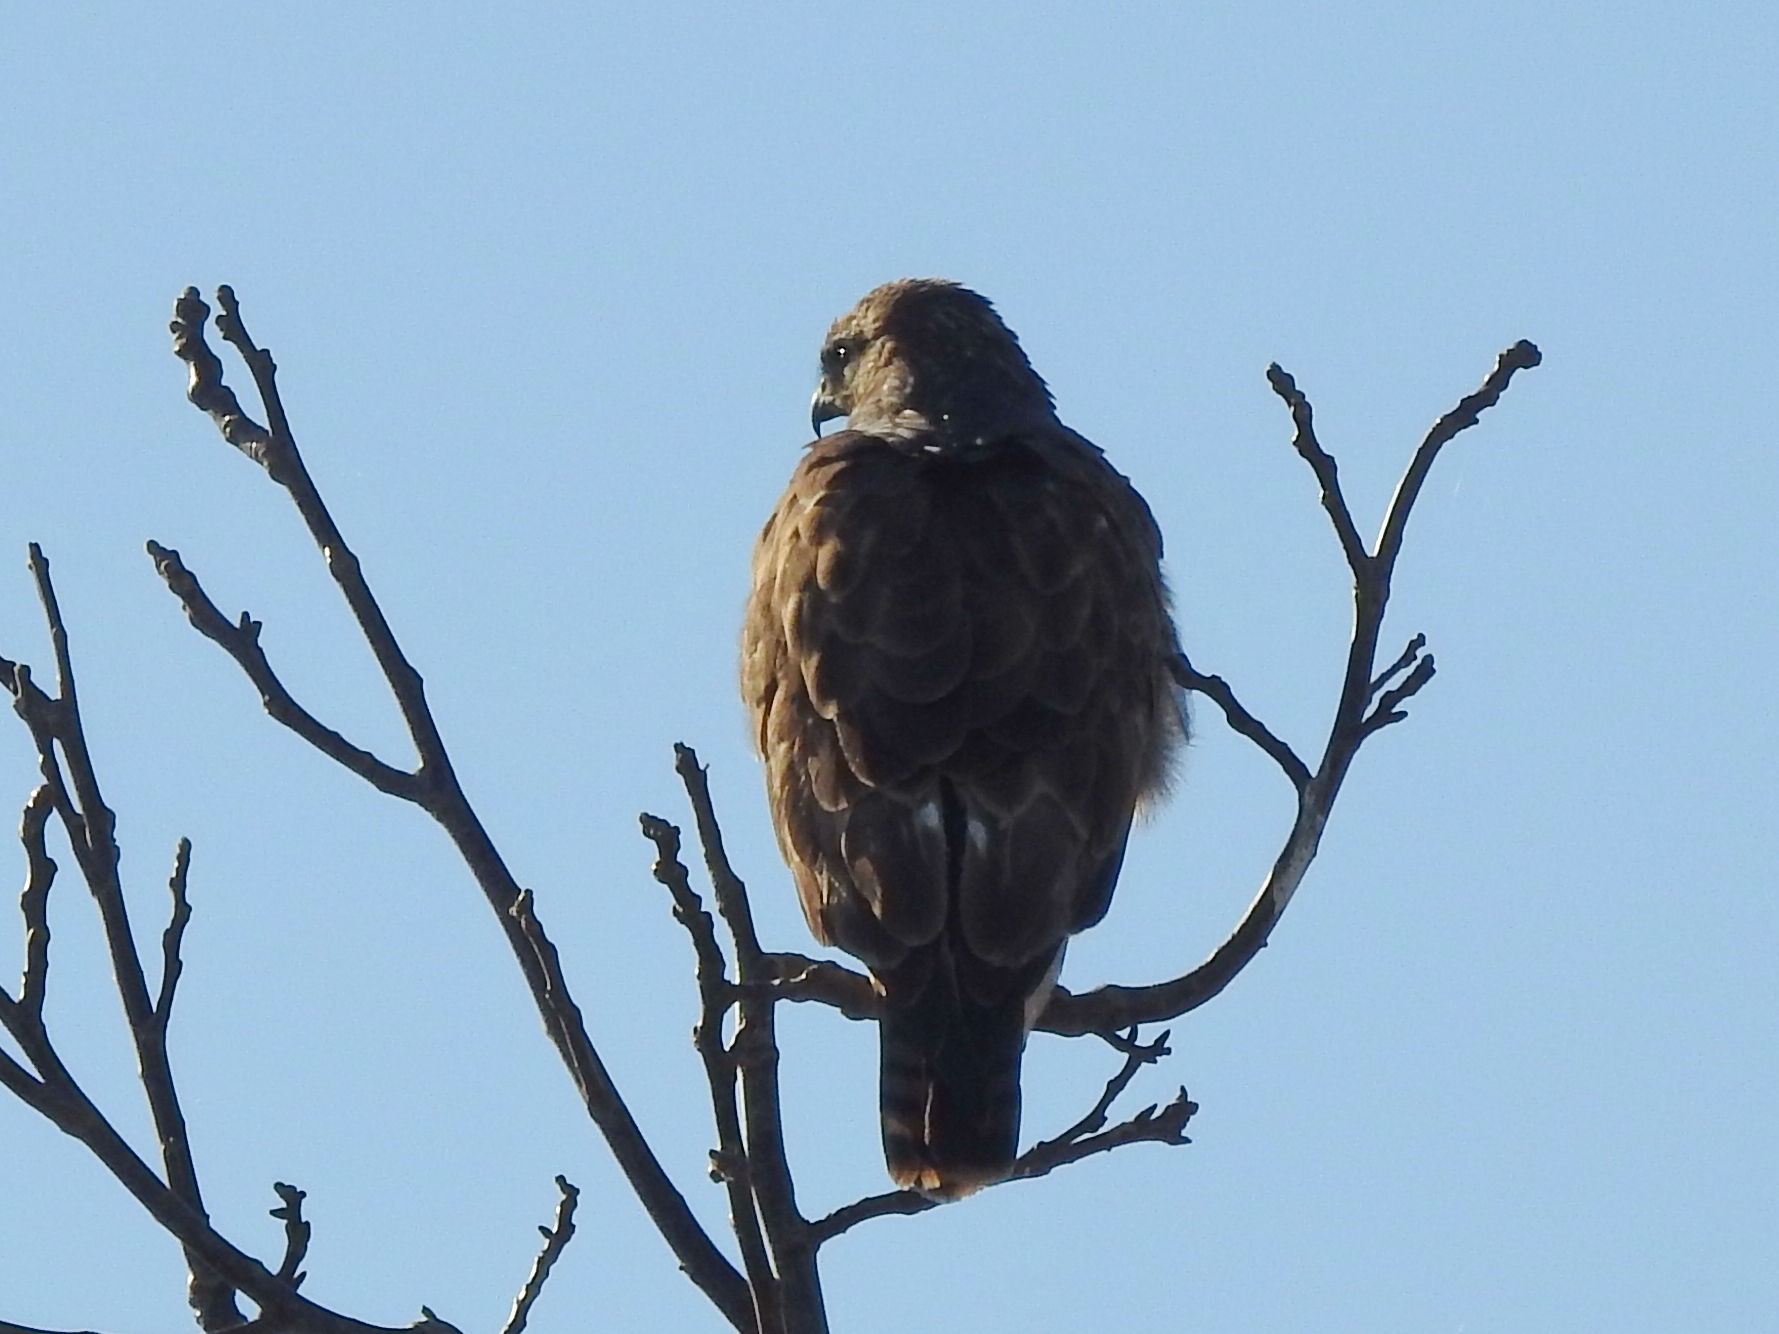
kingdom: Animalia
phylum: Chordata
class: Aves
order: Accipitriformes
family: Accipitridae
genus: Buteo
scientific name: Buteo buteo
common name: Common buzzard
